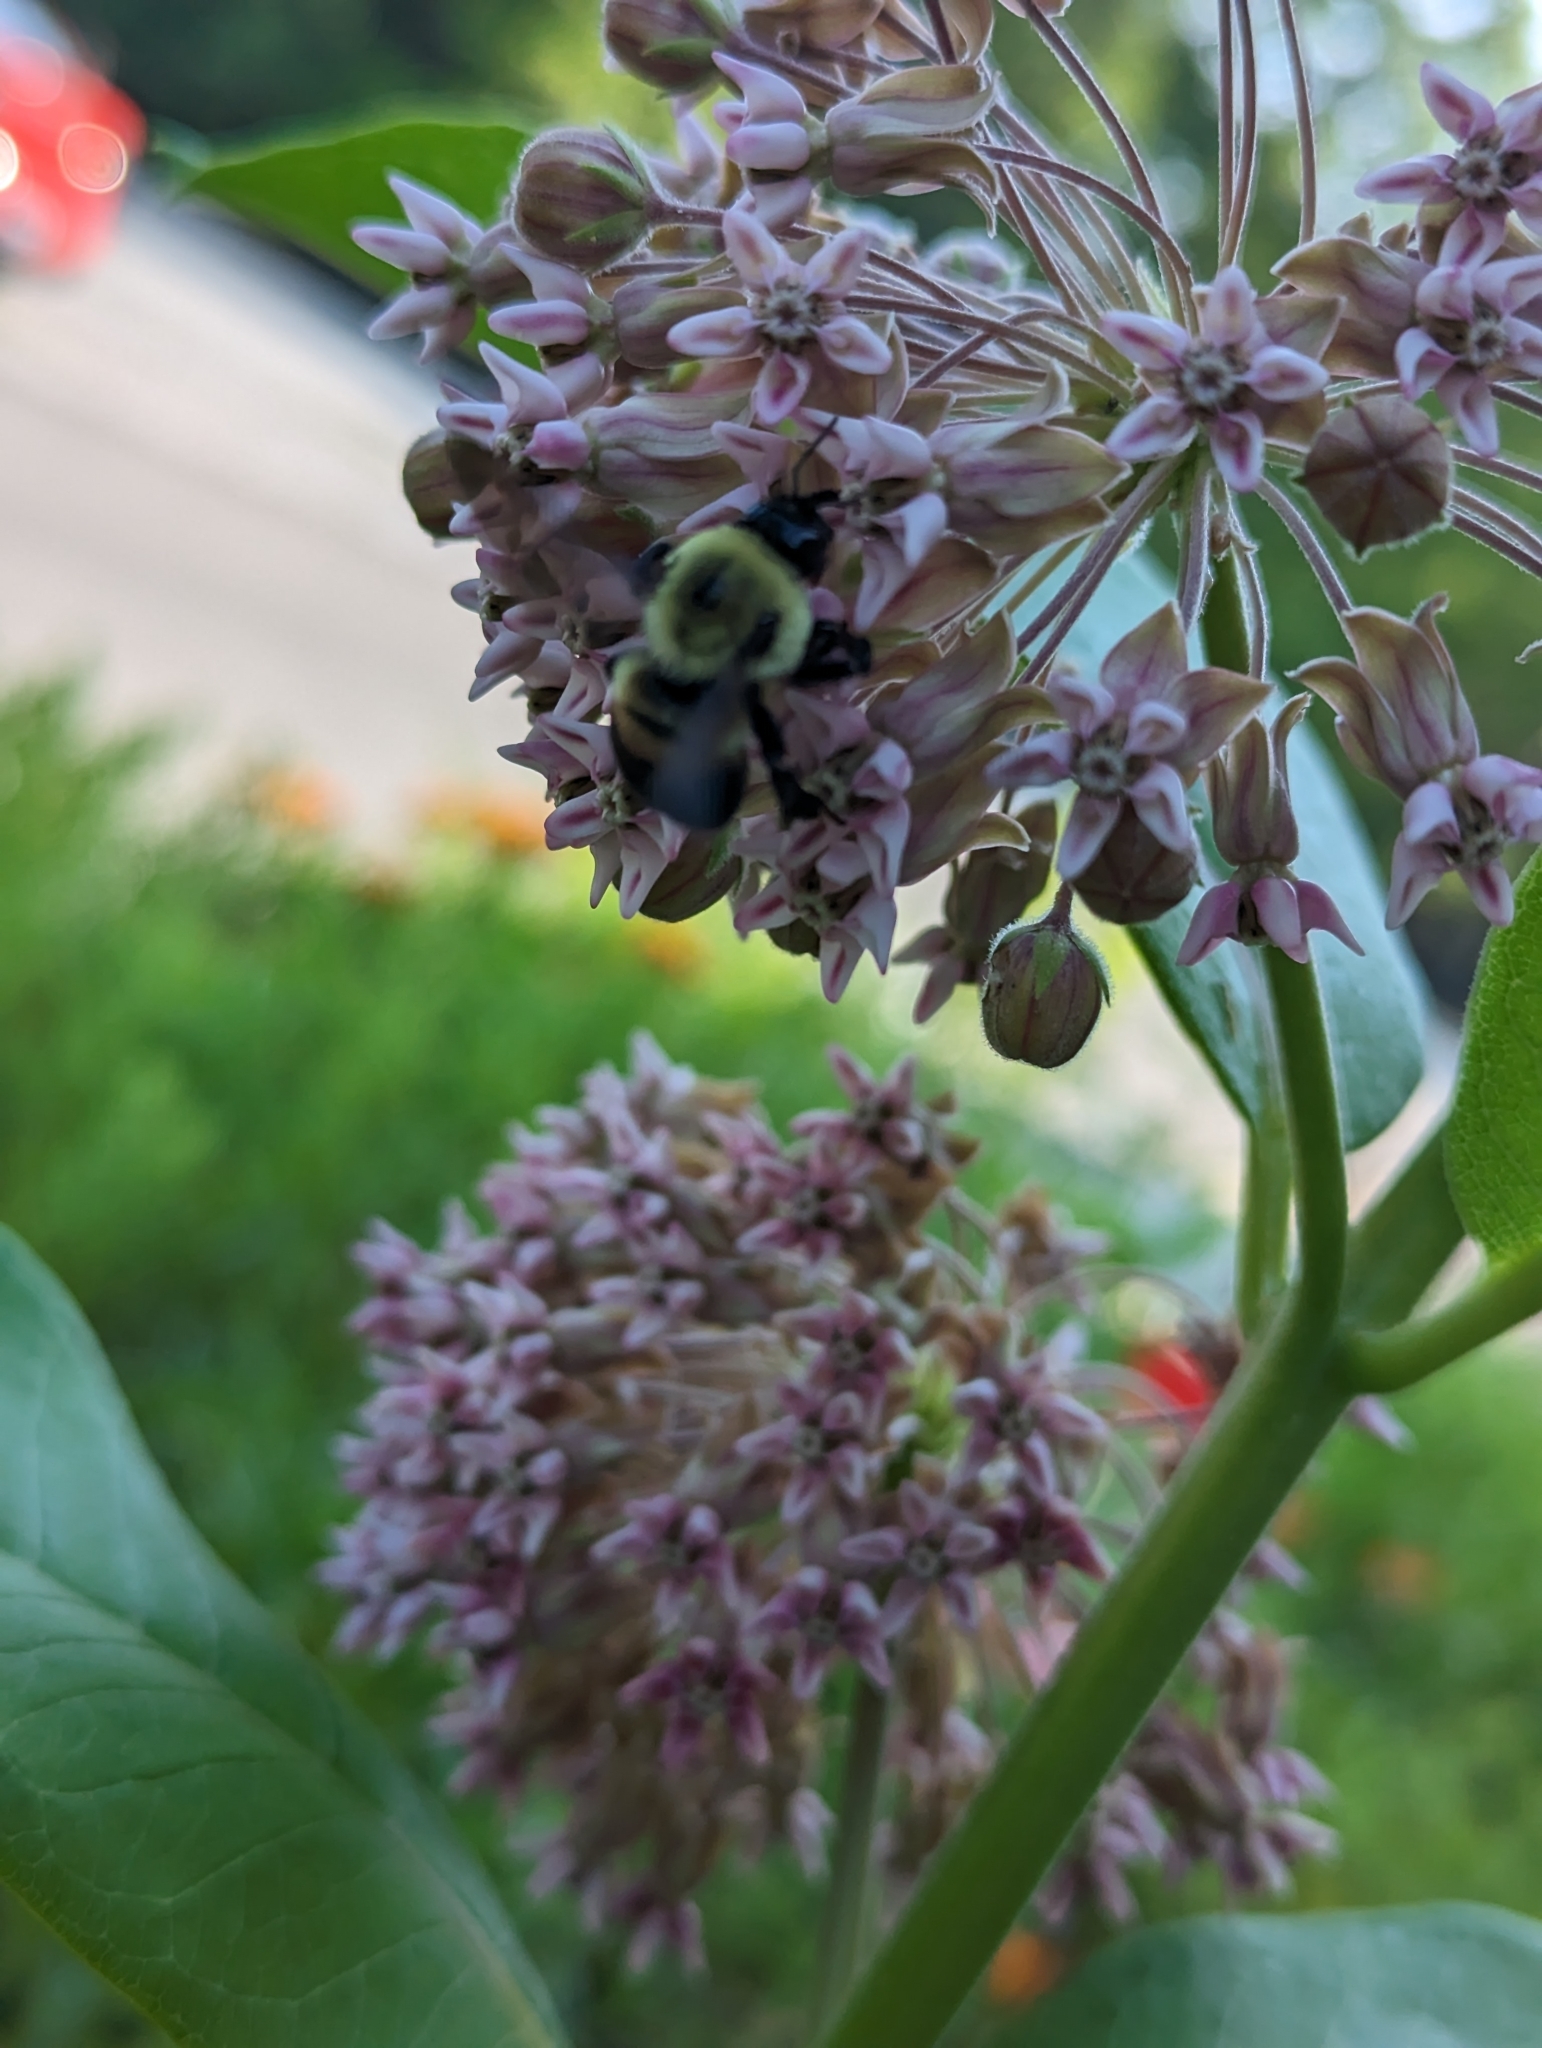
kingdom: Animalia
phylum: Arthropoda
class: Insecta
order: Hymenoptera
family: Apidae
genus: Bombus
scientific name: Bombus griseocollis
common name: Brown-belted bumble bee
